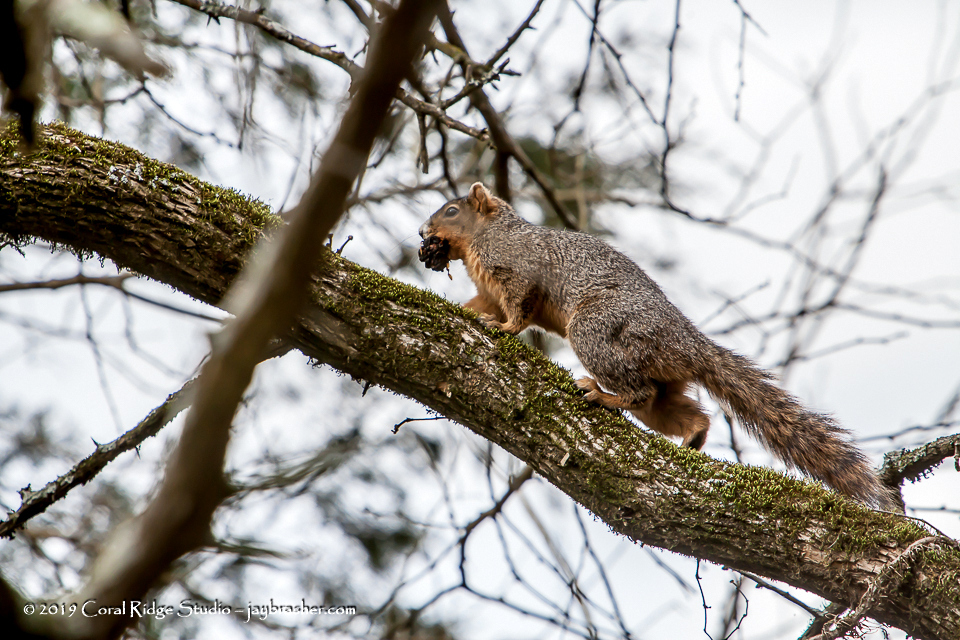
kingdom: Animalia
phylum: Chordata
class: Mammalia
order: Rodentia
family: Sciuridae
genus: Sciurus
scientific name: Sciurus niger
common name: Fox squirrel
